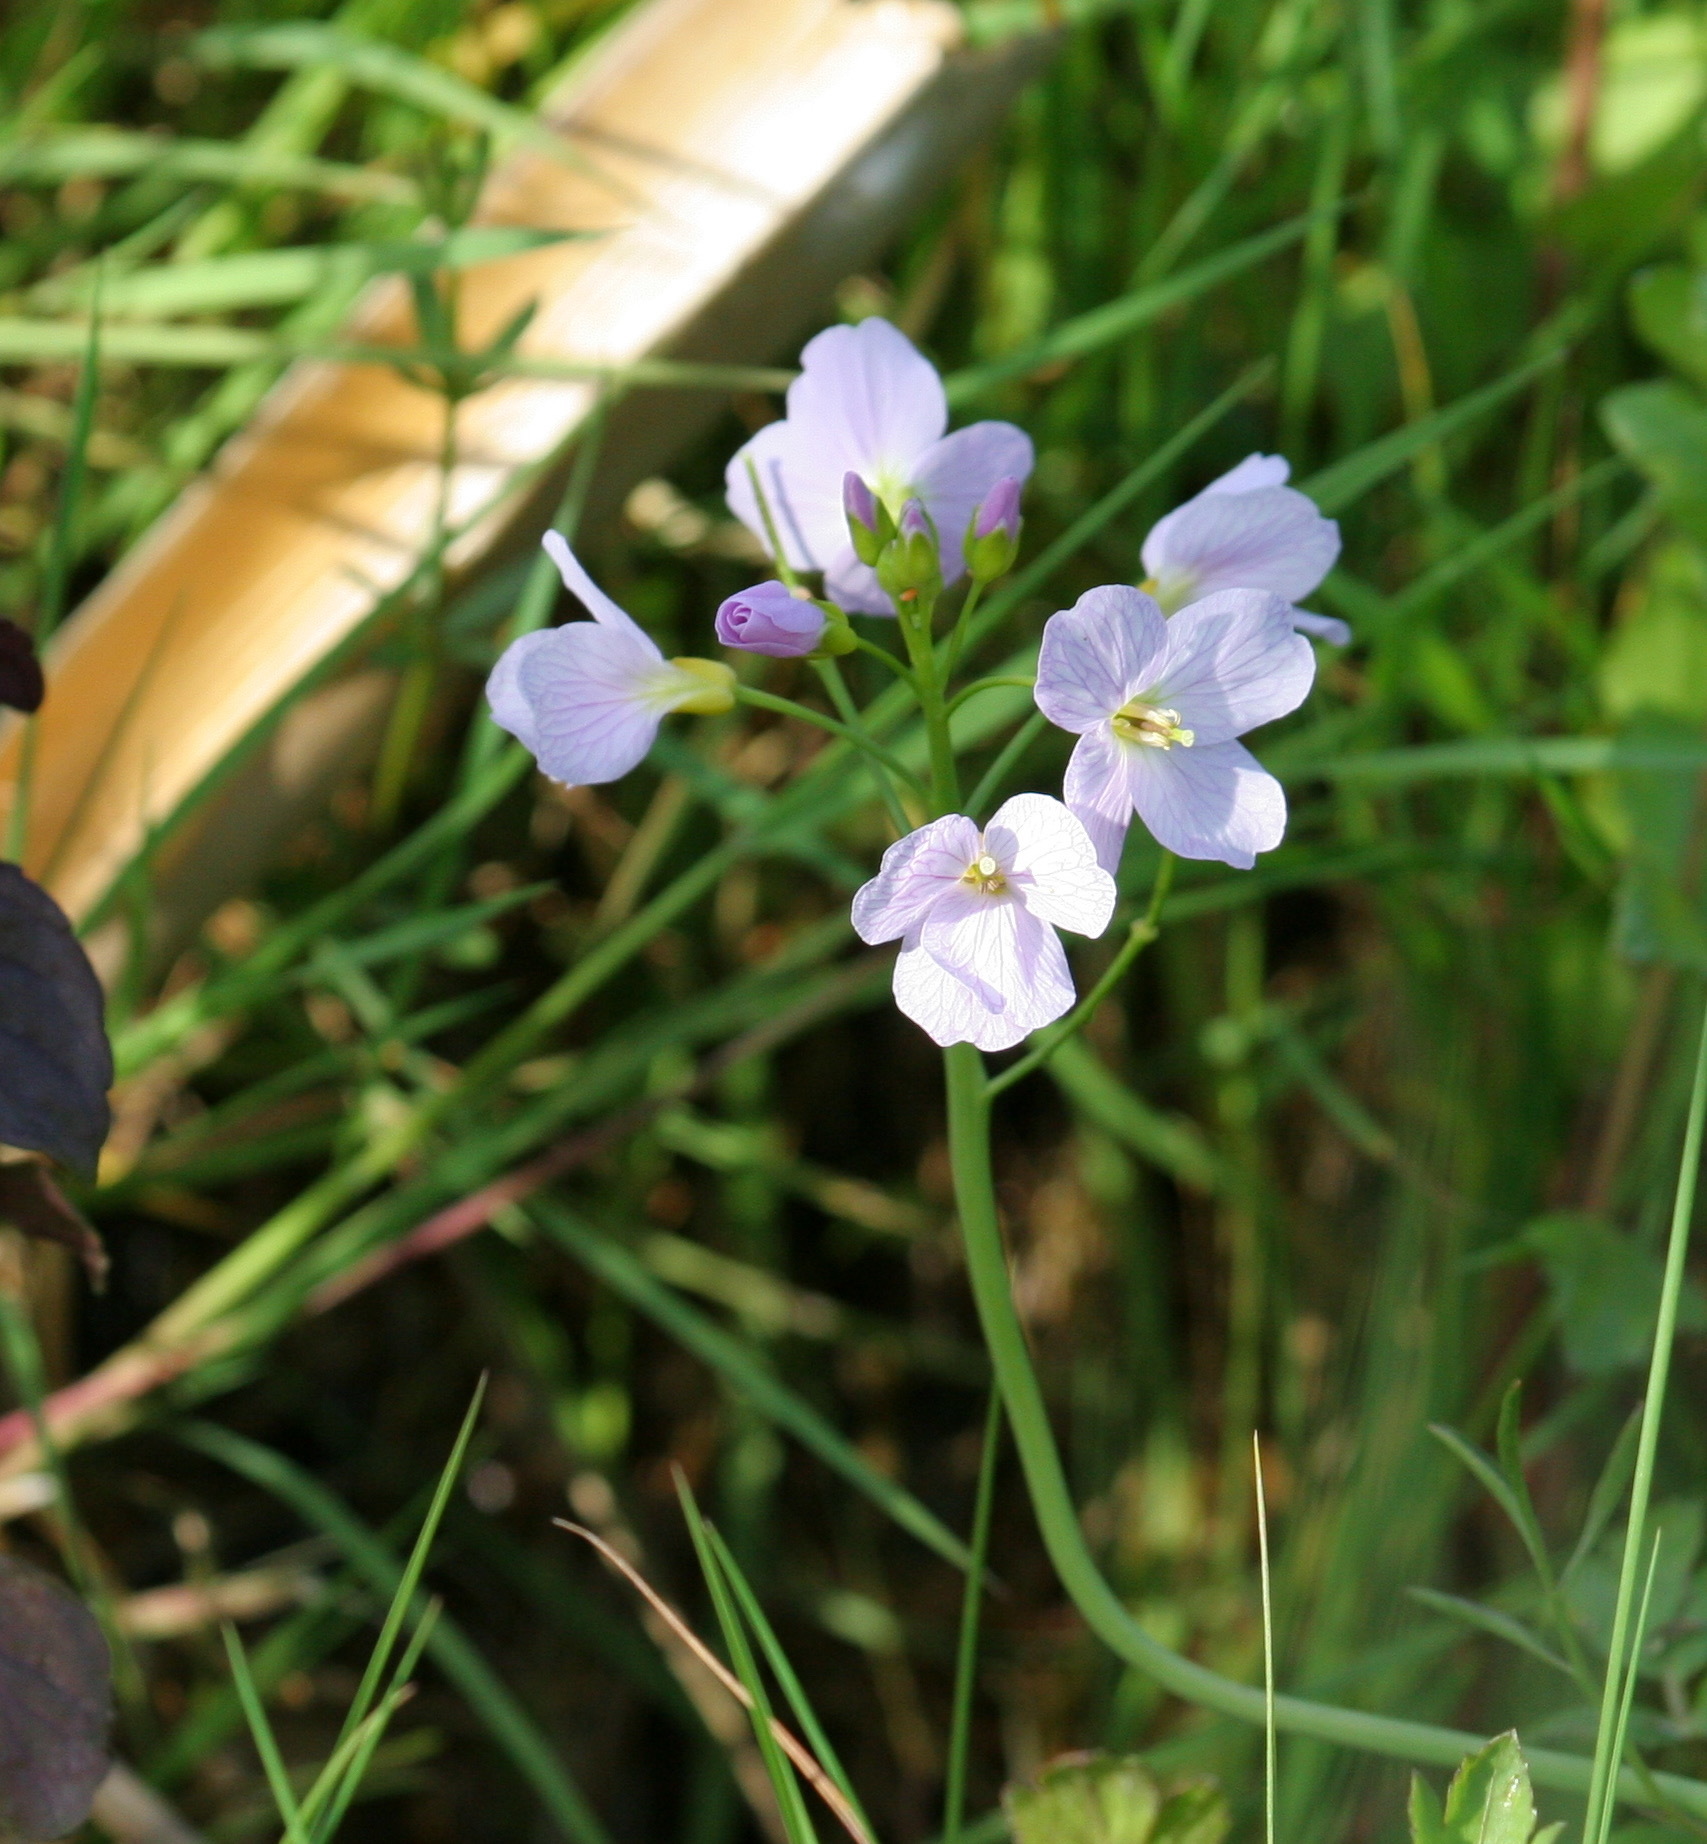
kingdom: Plantae
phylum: Tracheophyta
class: Magnoliopsida
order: Brassicales
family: Brassicaceae
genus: Cardamine
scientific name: Cardamine pratensis
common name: Cuckoo flower
